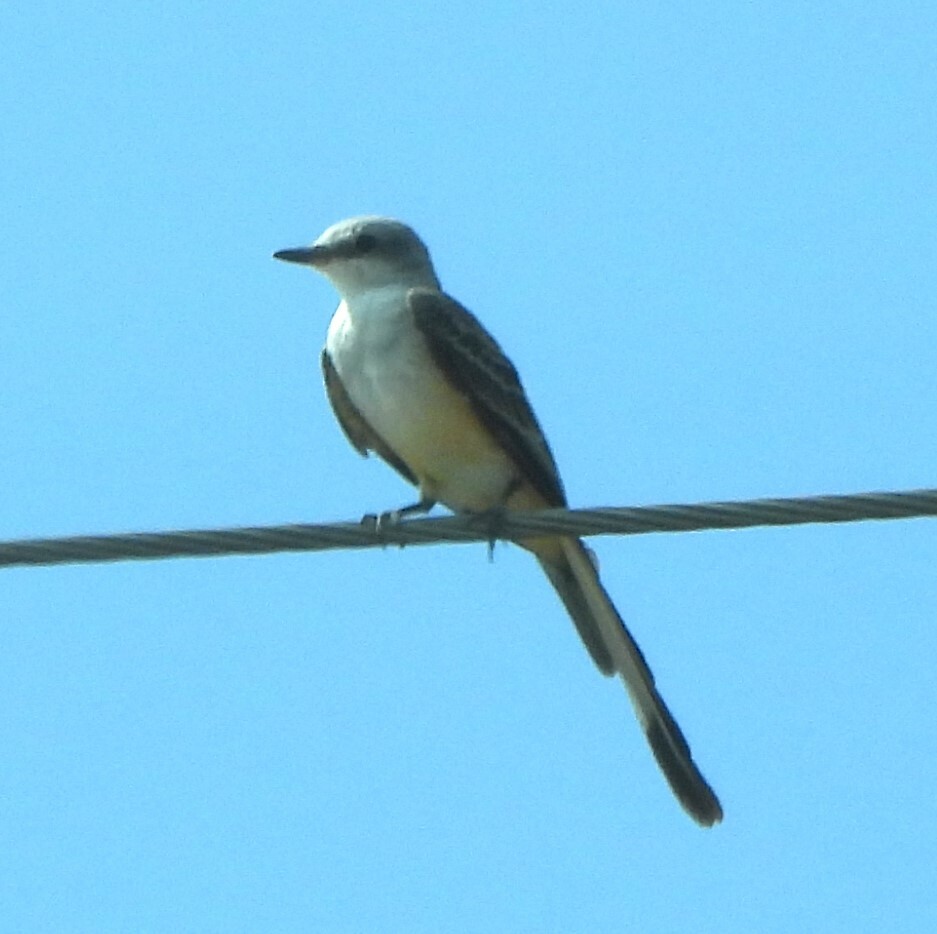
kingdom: Animalia
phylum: Chordata
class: Aves
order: Passeriformes
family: Tyrannidae
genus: Tyrannus
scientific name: Tyrannus forficatus
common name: Scissor-tailed flycatcher
